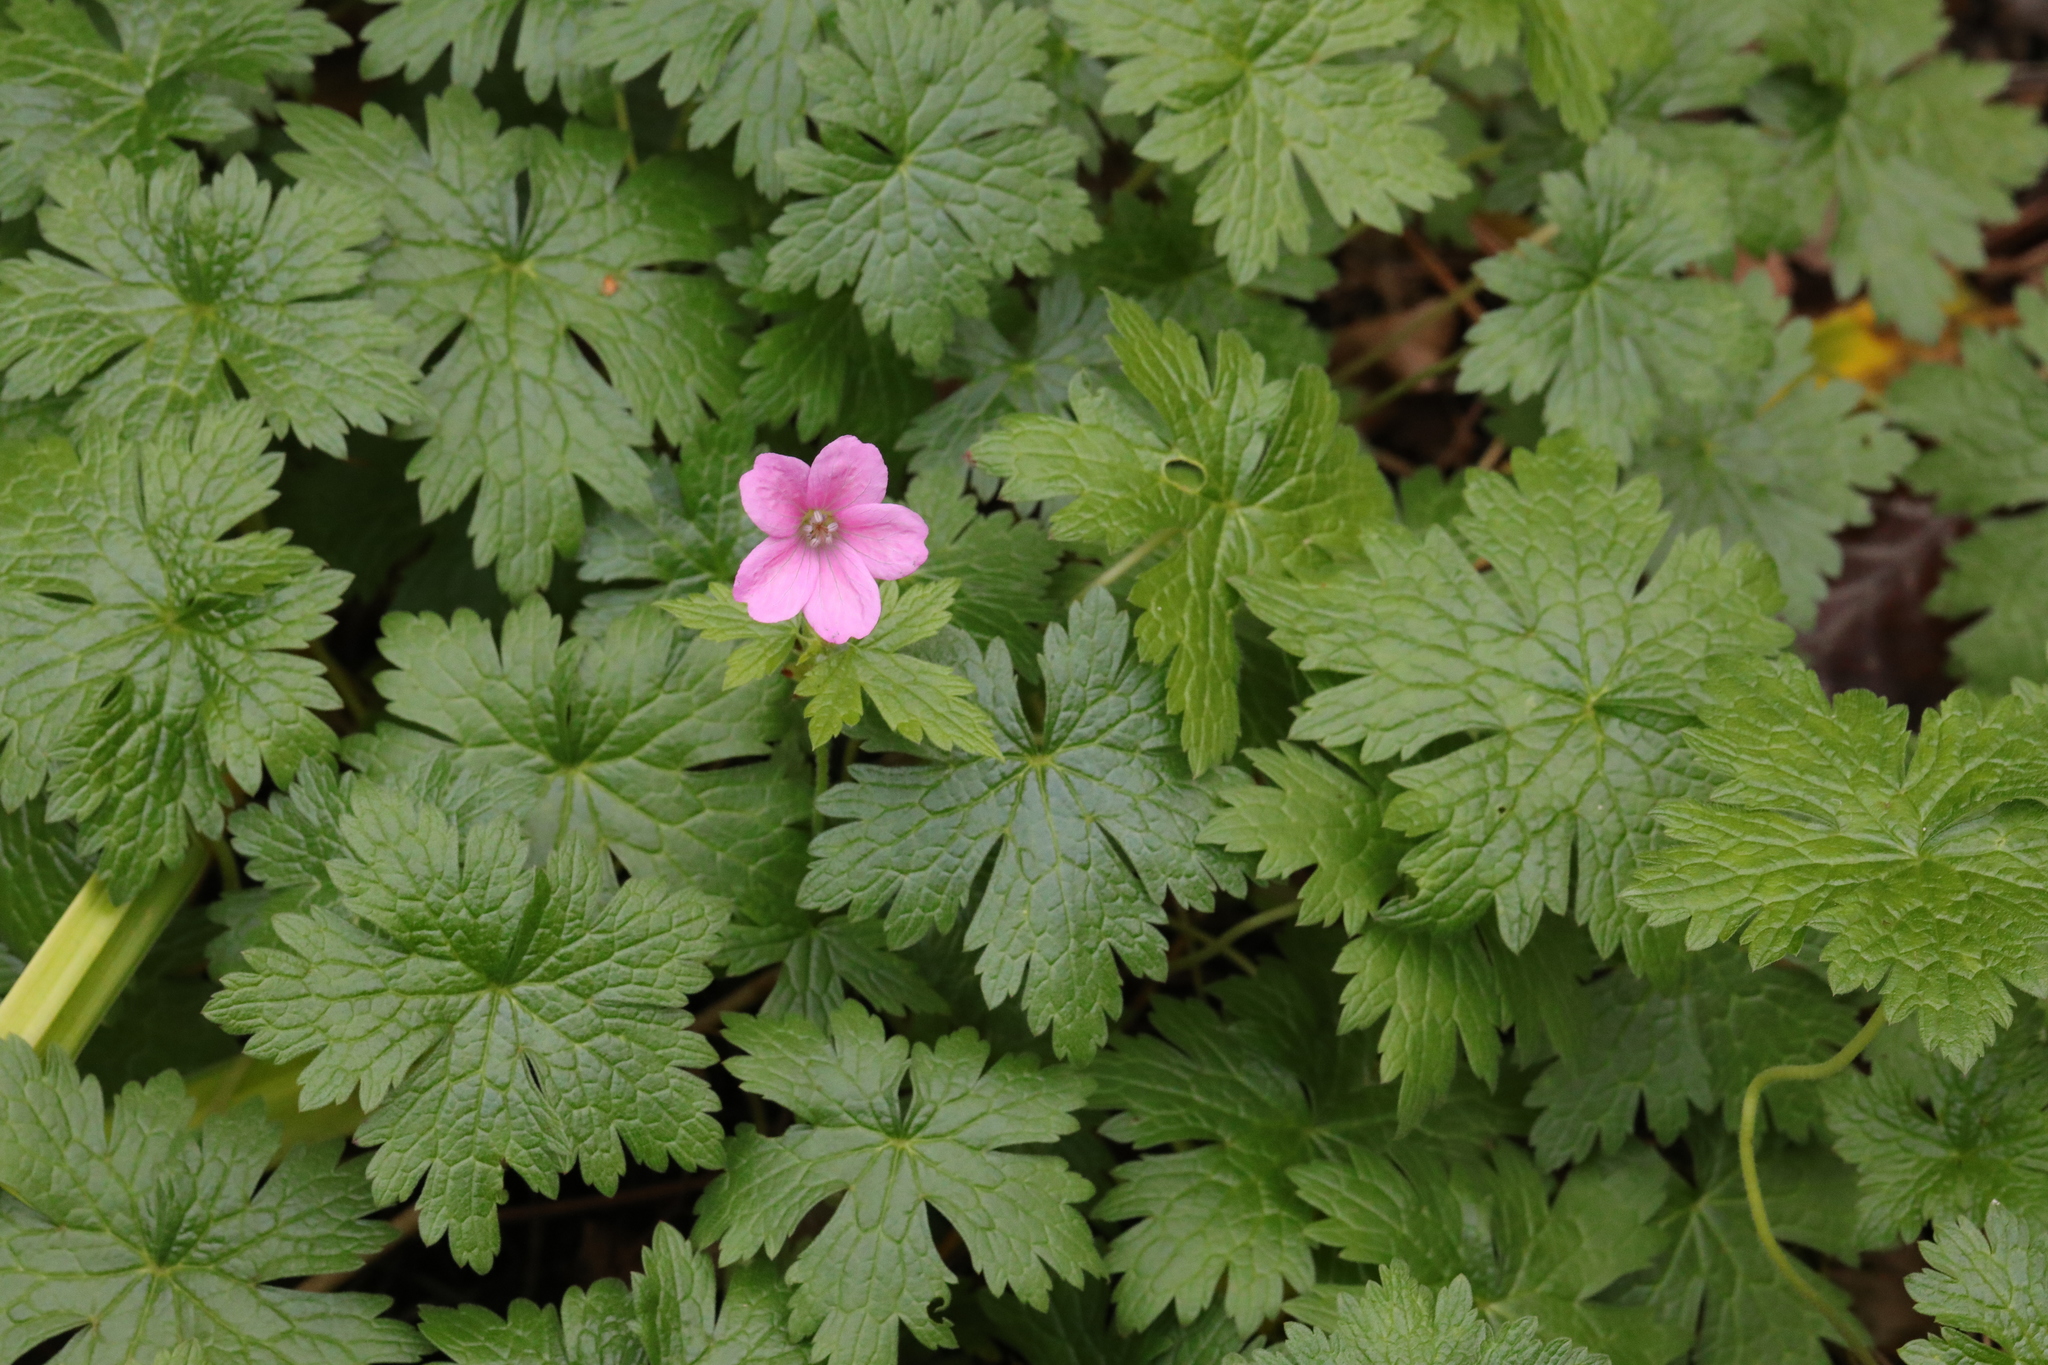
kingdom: Plantae
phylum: Tracheophyta
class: Magnoliopsida
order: Geraniales
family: Geraniaceae
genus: Geranium
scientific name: Geranium oxonianum
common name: Druce's crane's-bill
